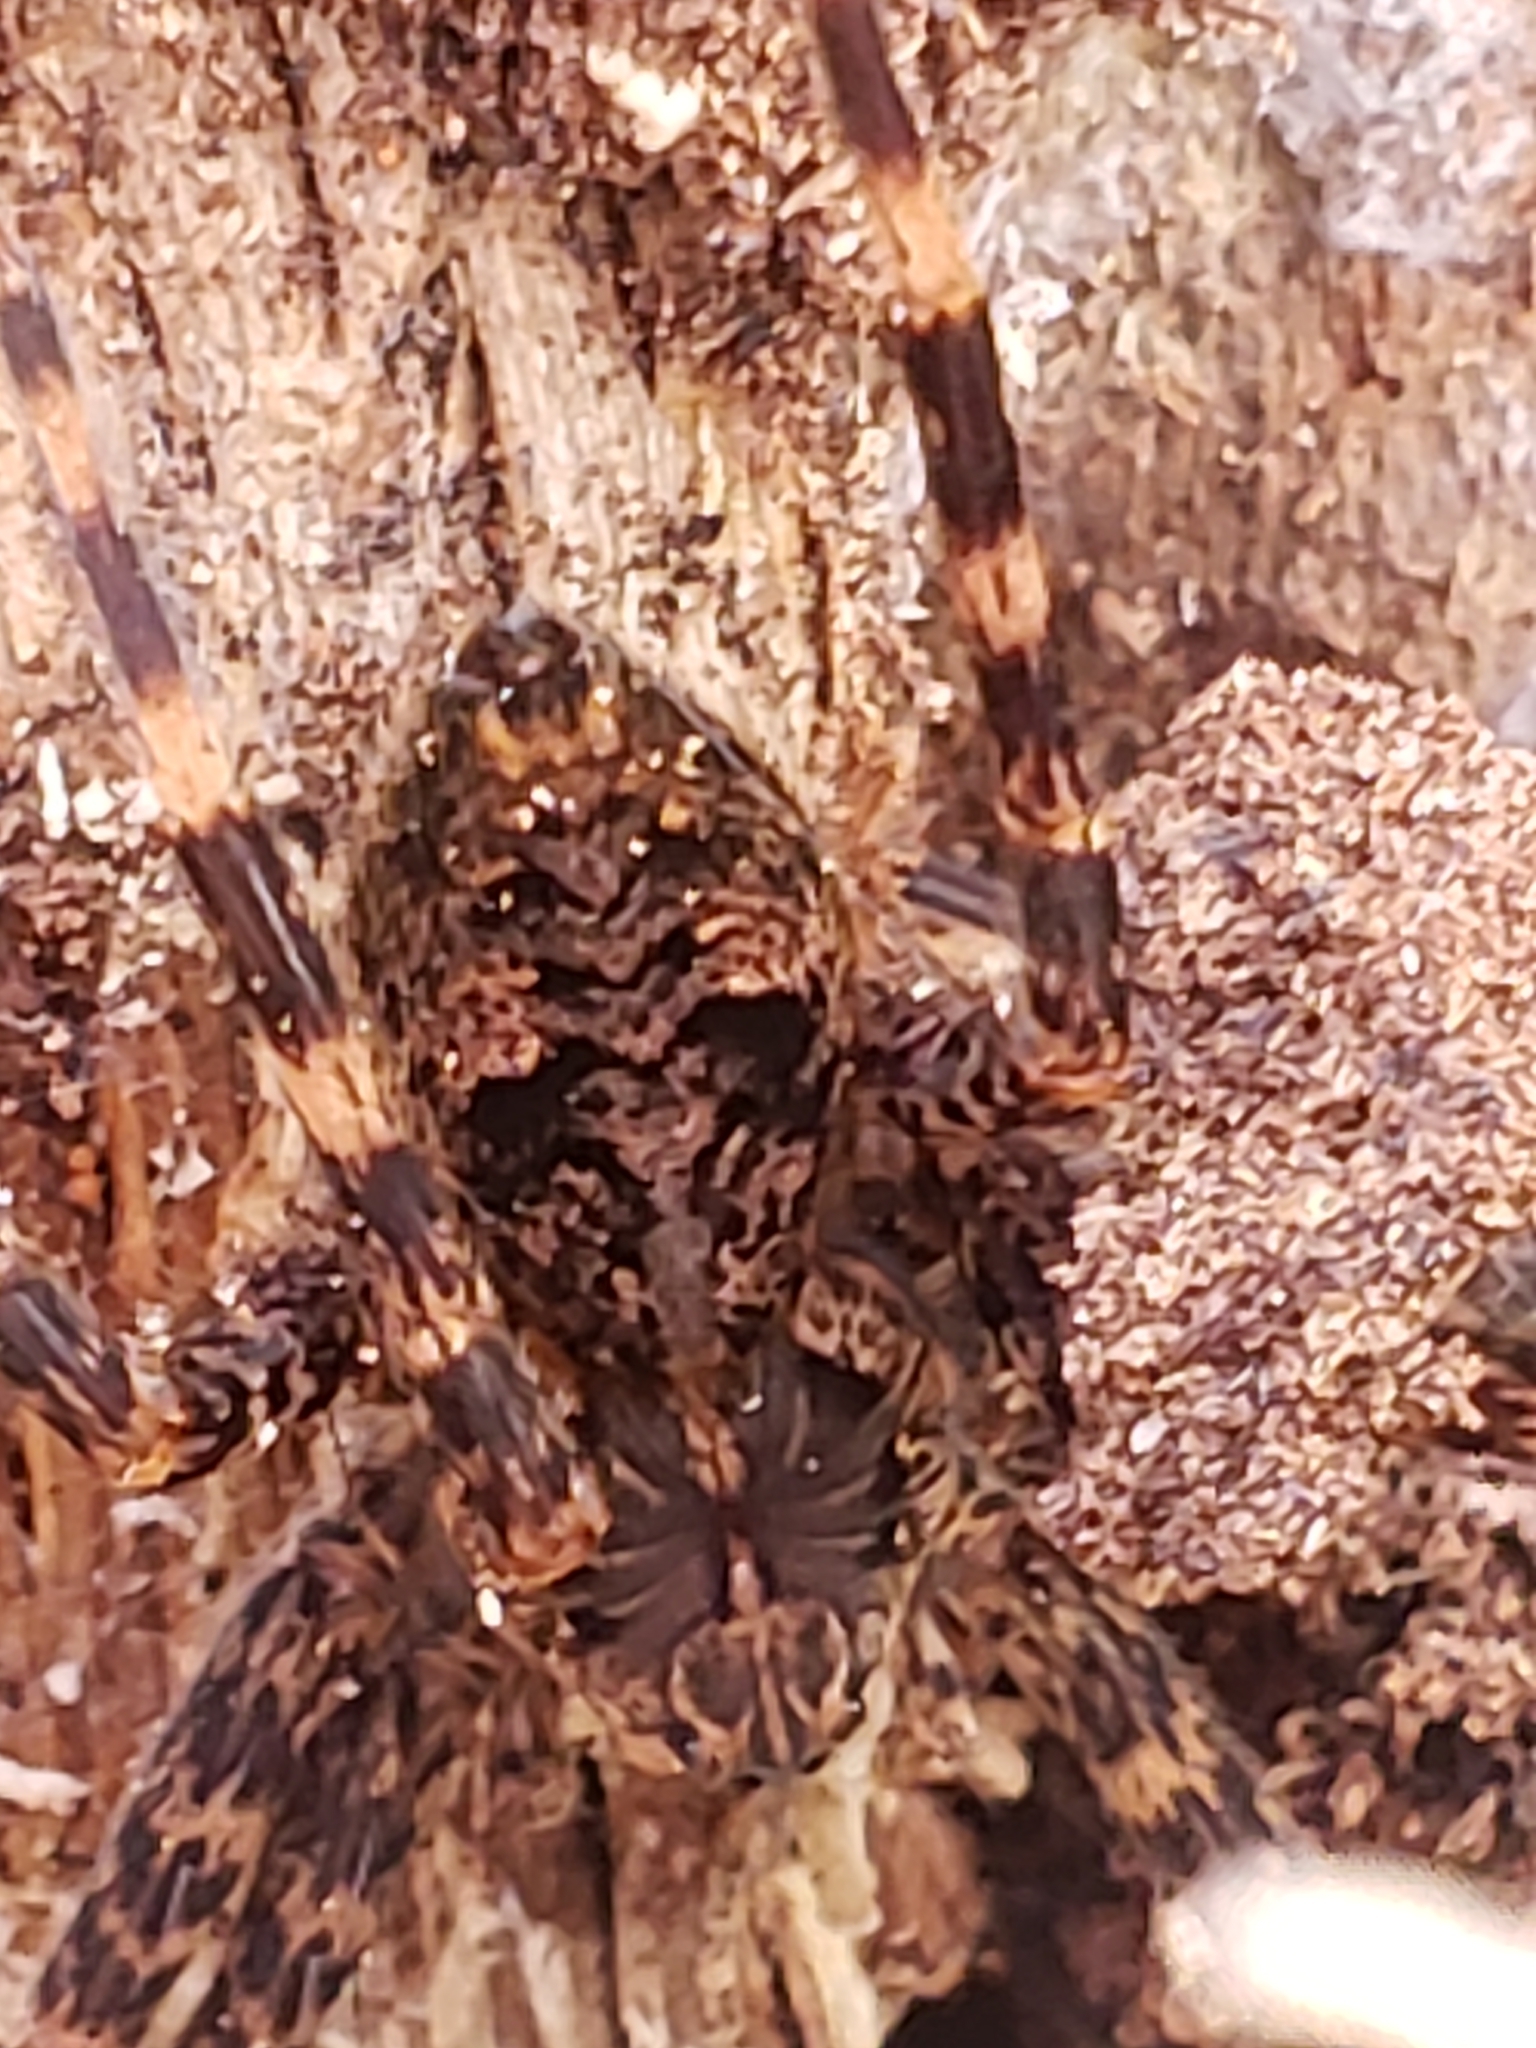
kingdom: Animalia
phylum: Arthropoda
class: Arachnida
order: Araneae
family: Pisauridae
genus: Dolomedes
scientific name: Dolomedes tenebrosus
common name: Dark fishing spider
